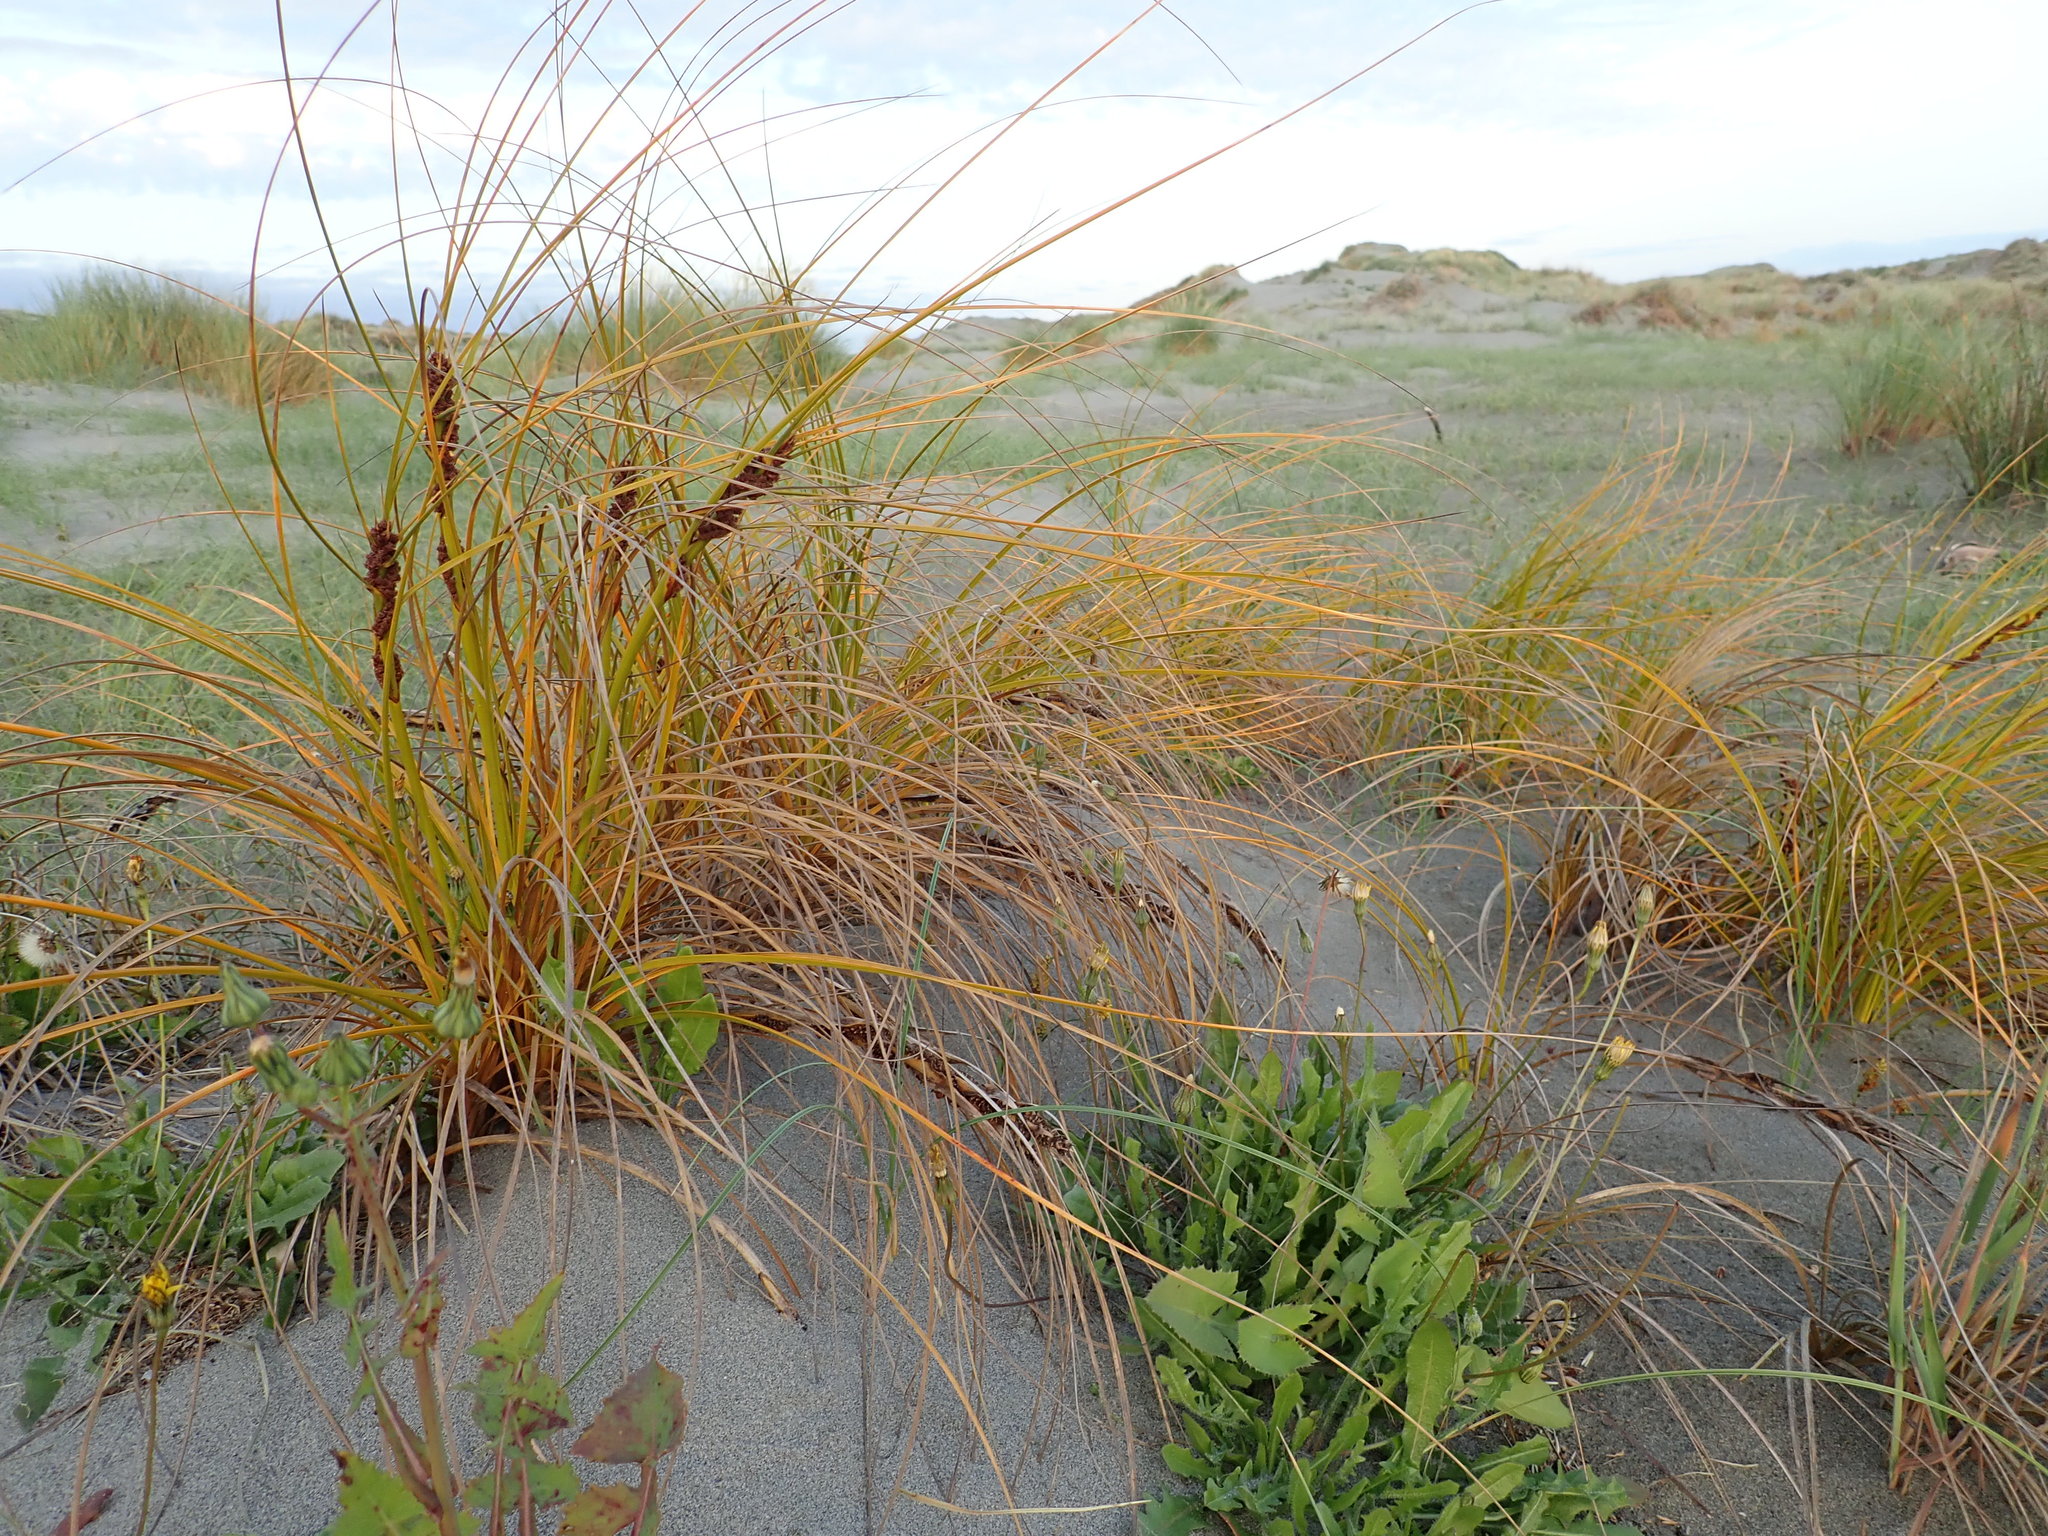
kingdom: Plantae
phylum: Tracheophyta
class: Liliopsida
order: Poales
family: Cyperaceae
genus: Ficinia
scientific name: Ficinia spiralis
